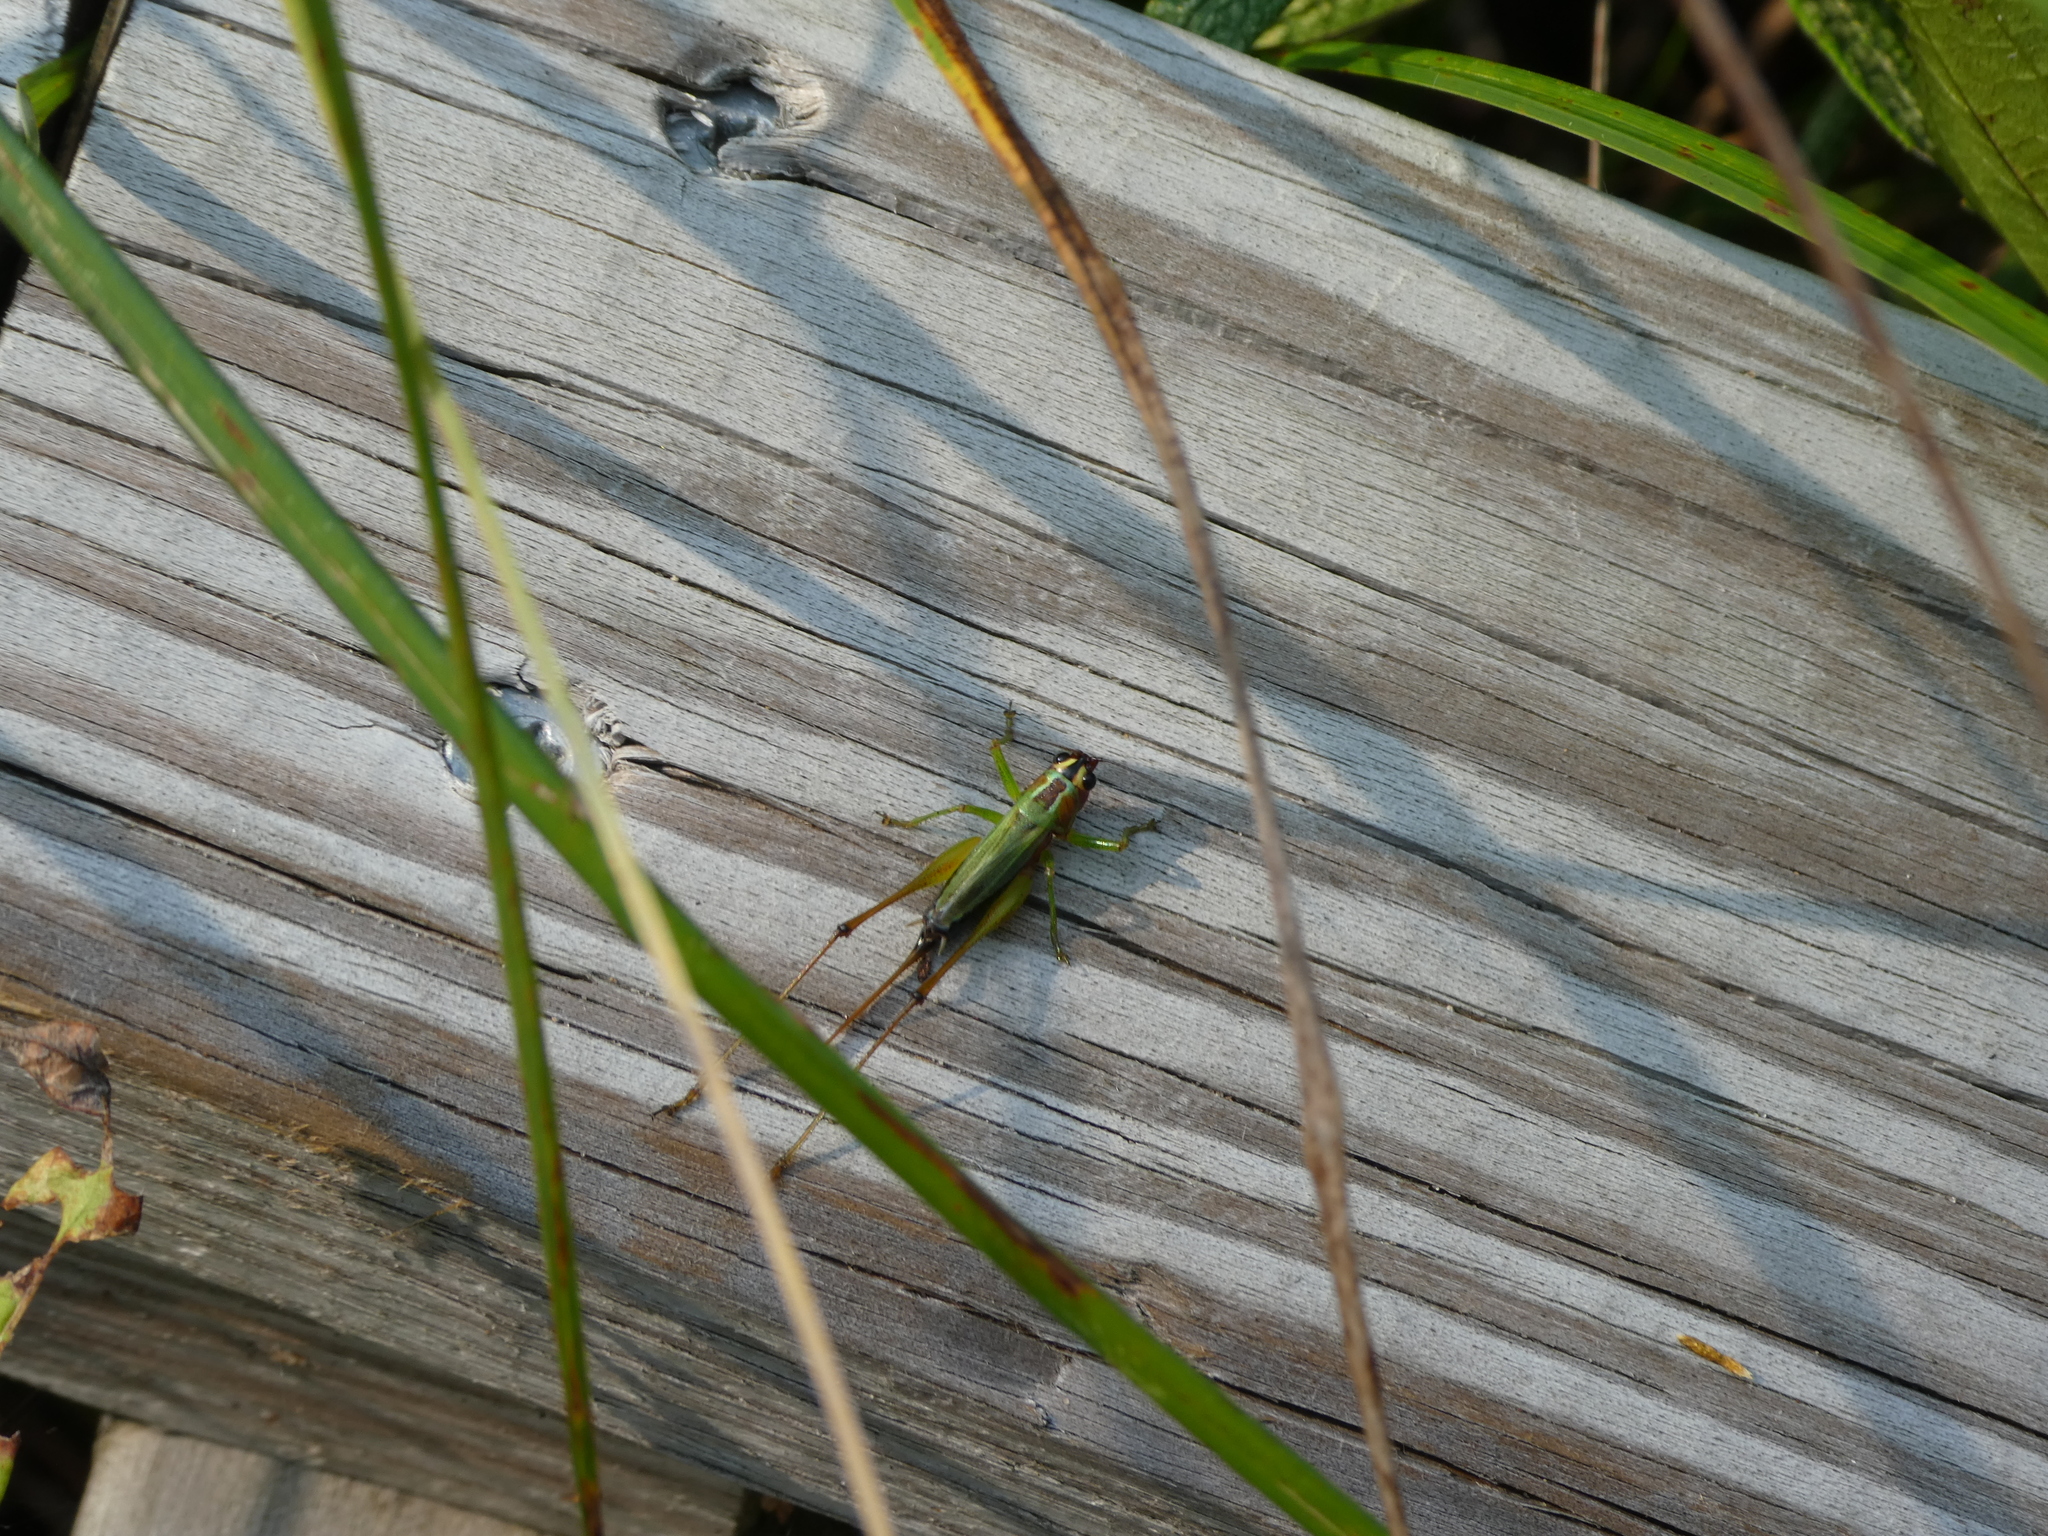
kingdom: Animalia
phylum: Arthropoda
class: Insecta
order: Orthoptera
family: Tettigoniidae
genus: Conocephalus
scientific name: Conocephalus nigropleurum
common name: Black-sided meadow katydid
